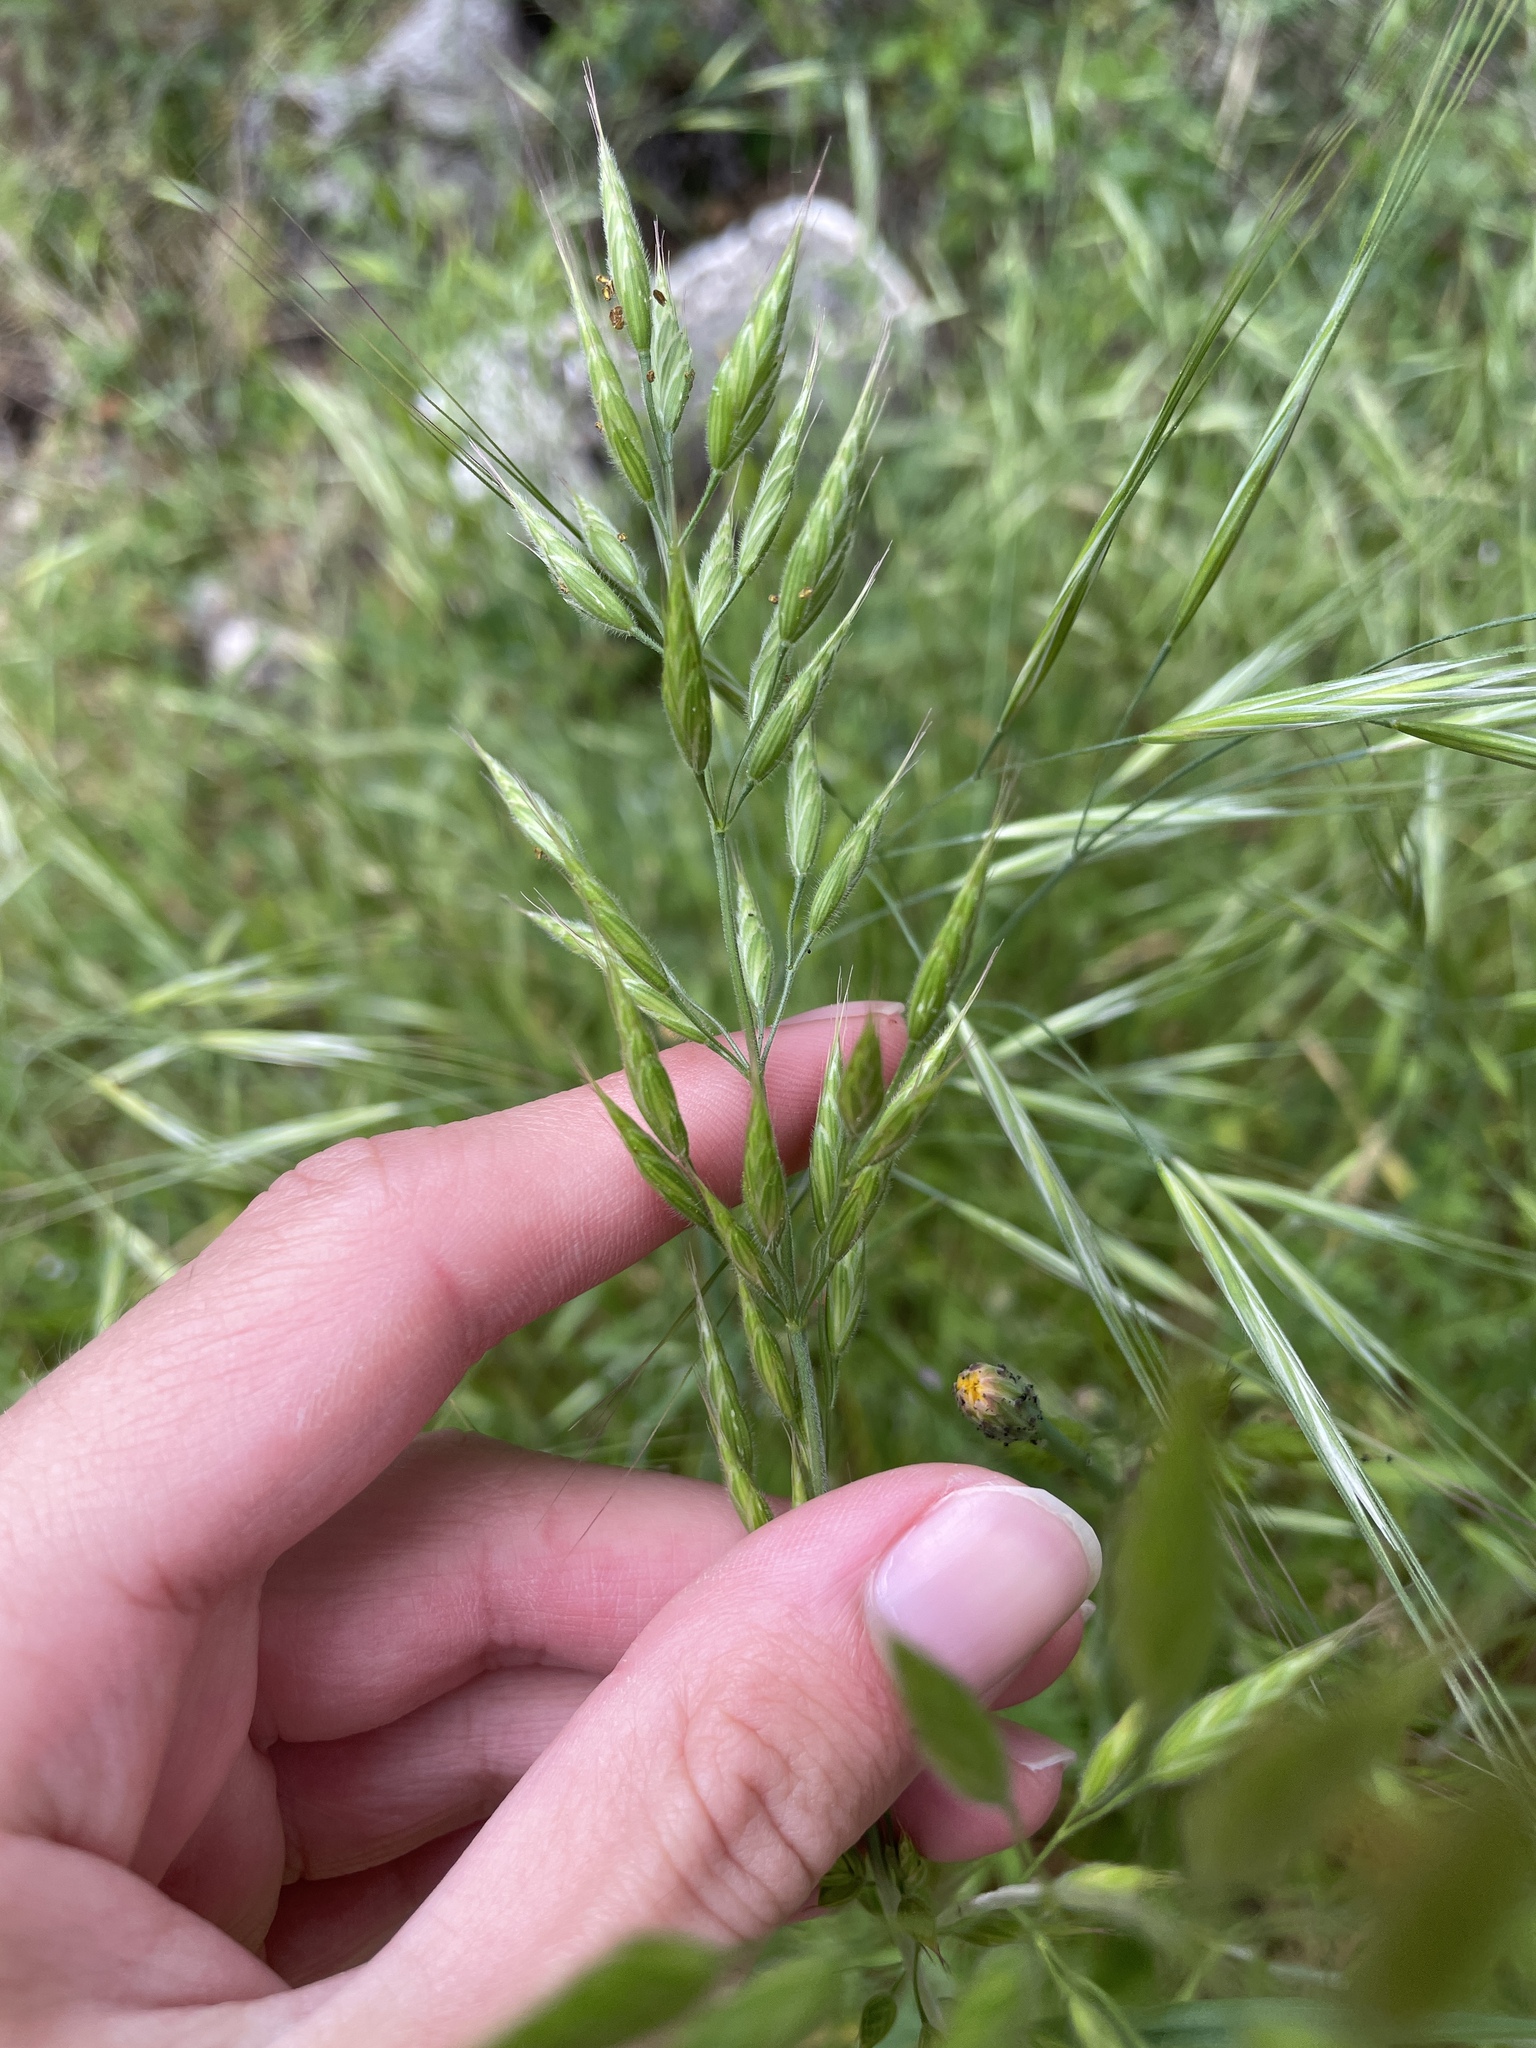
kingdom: Plantae
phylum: Tracheophyta
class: Liliopsida
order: Poales
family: Poaceae
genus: Bromus
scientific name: Bromus hordeaceus
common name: Soft brome
